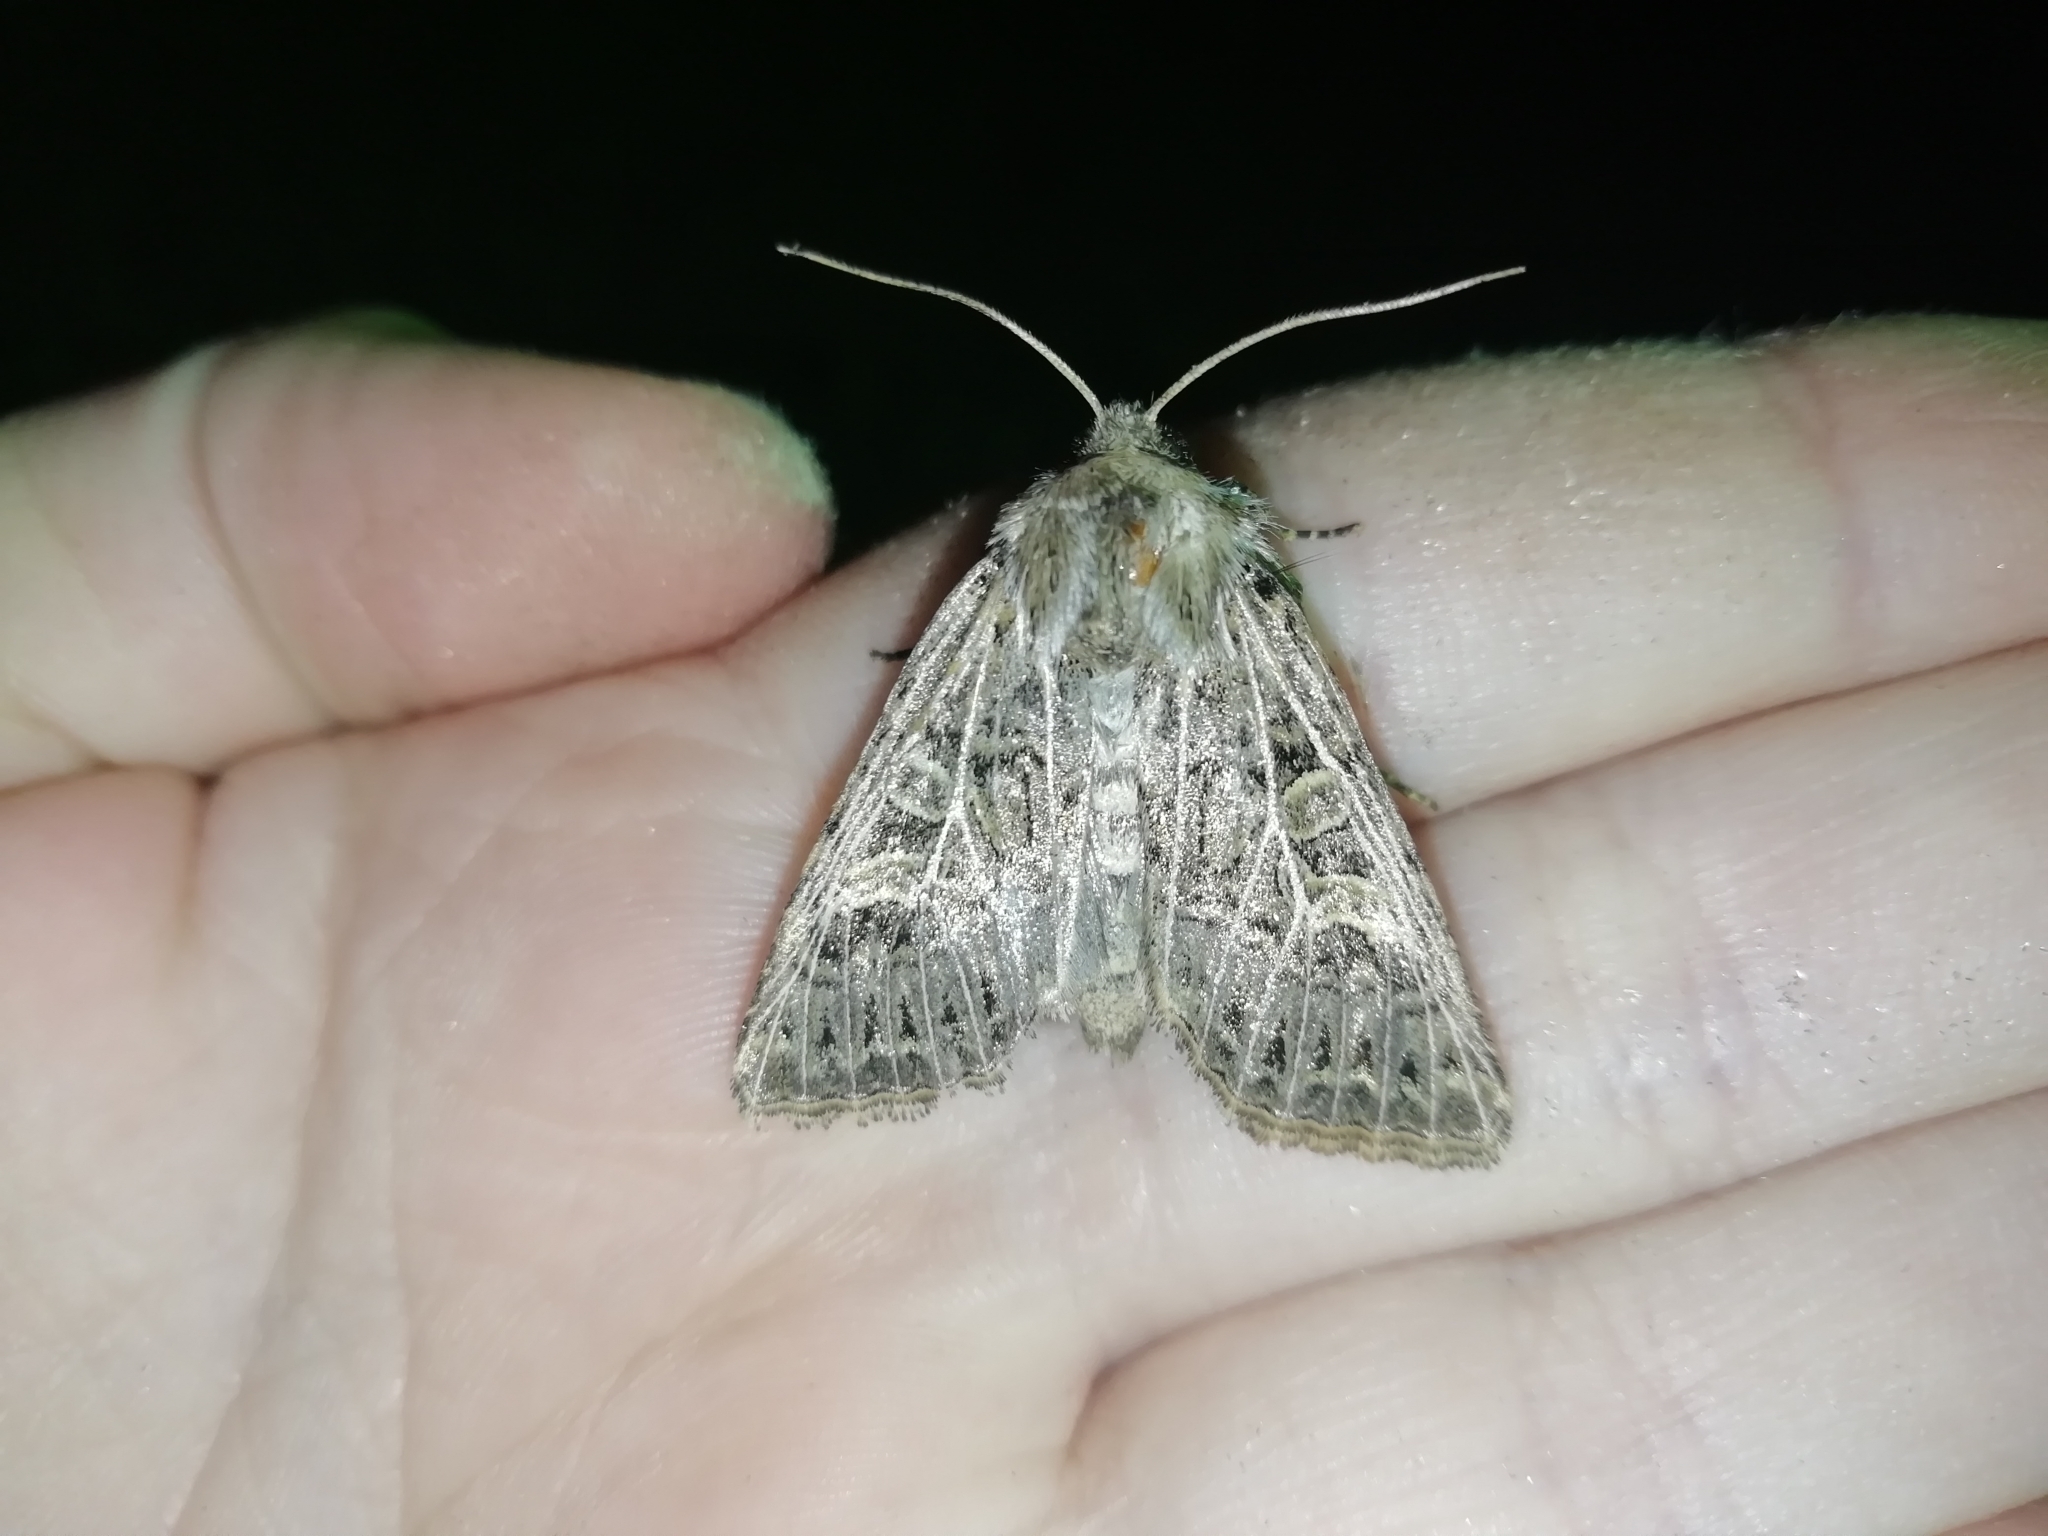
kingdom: Animalia
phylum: Arthropoda
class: Insecta
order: Lepidoptera
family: Noctuidae
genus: Tholera
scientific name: Tholera decimalis
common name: Feathered gothic
